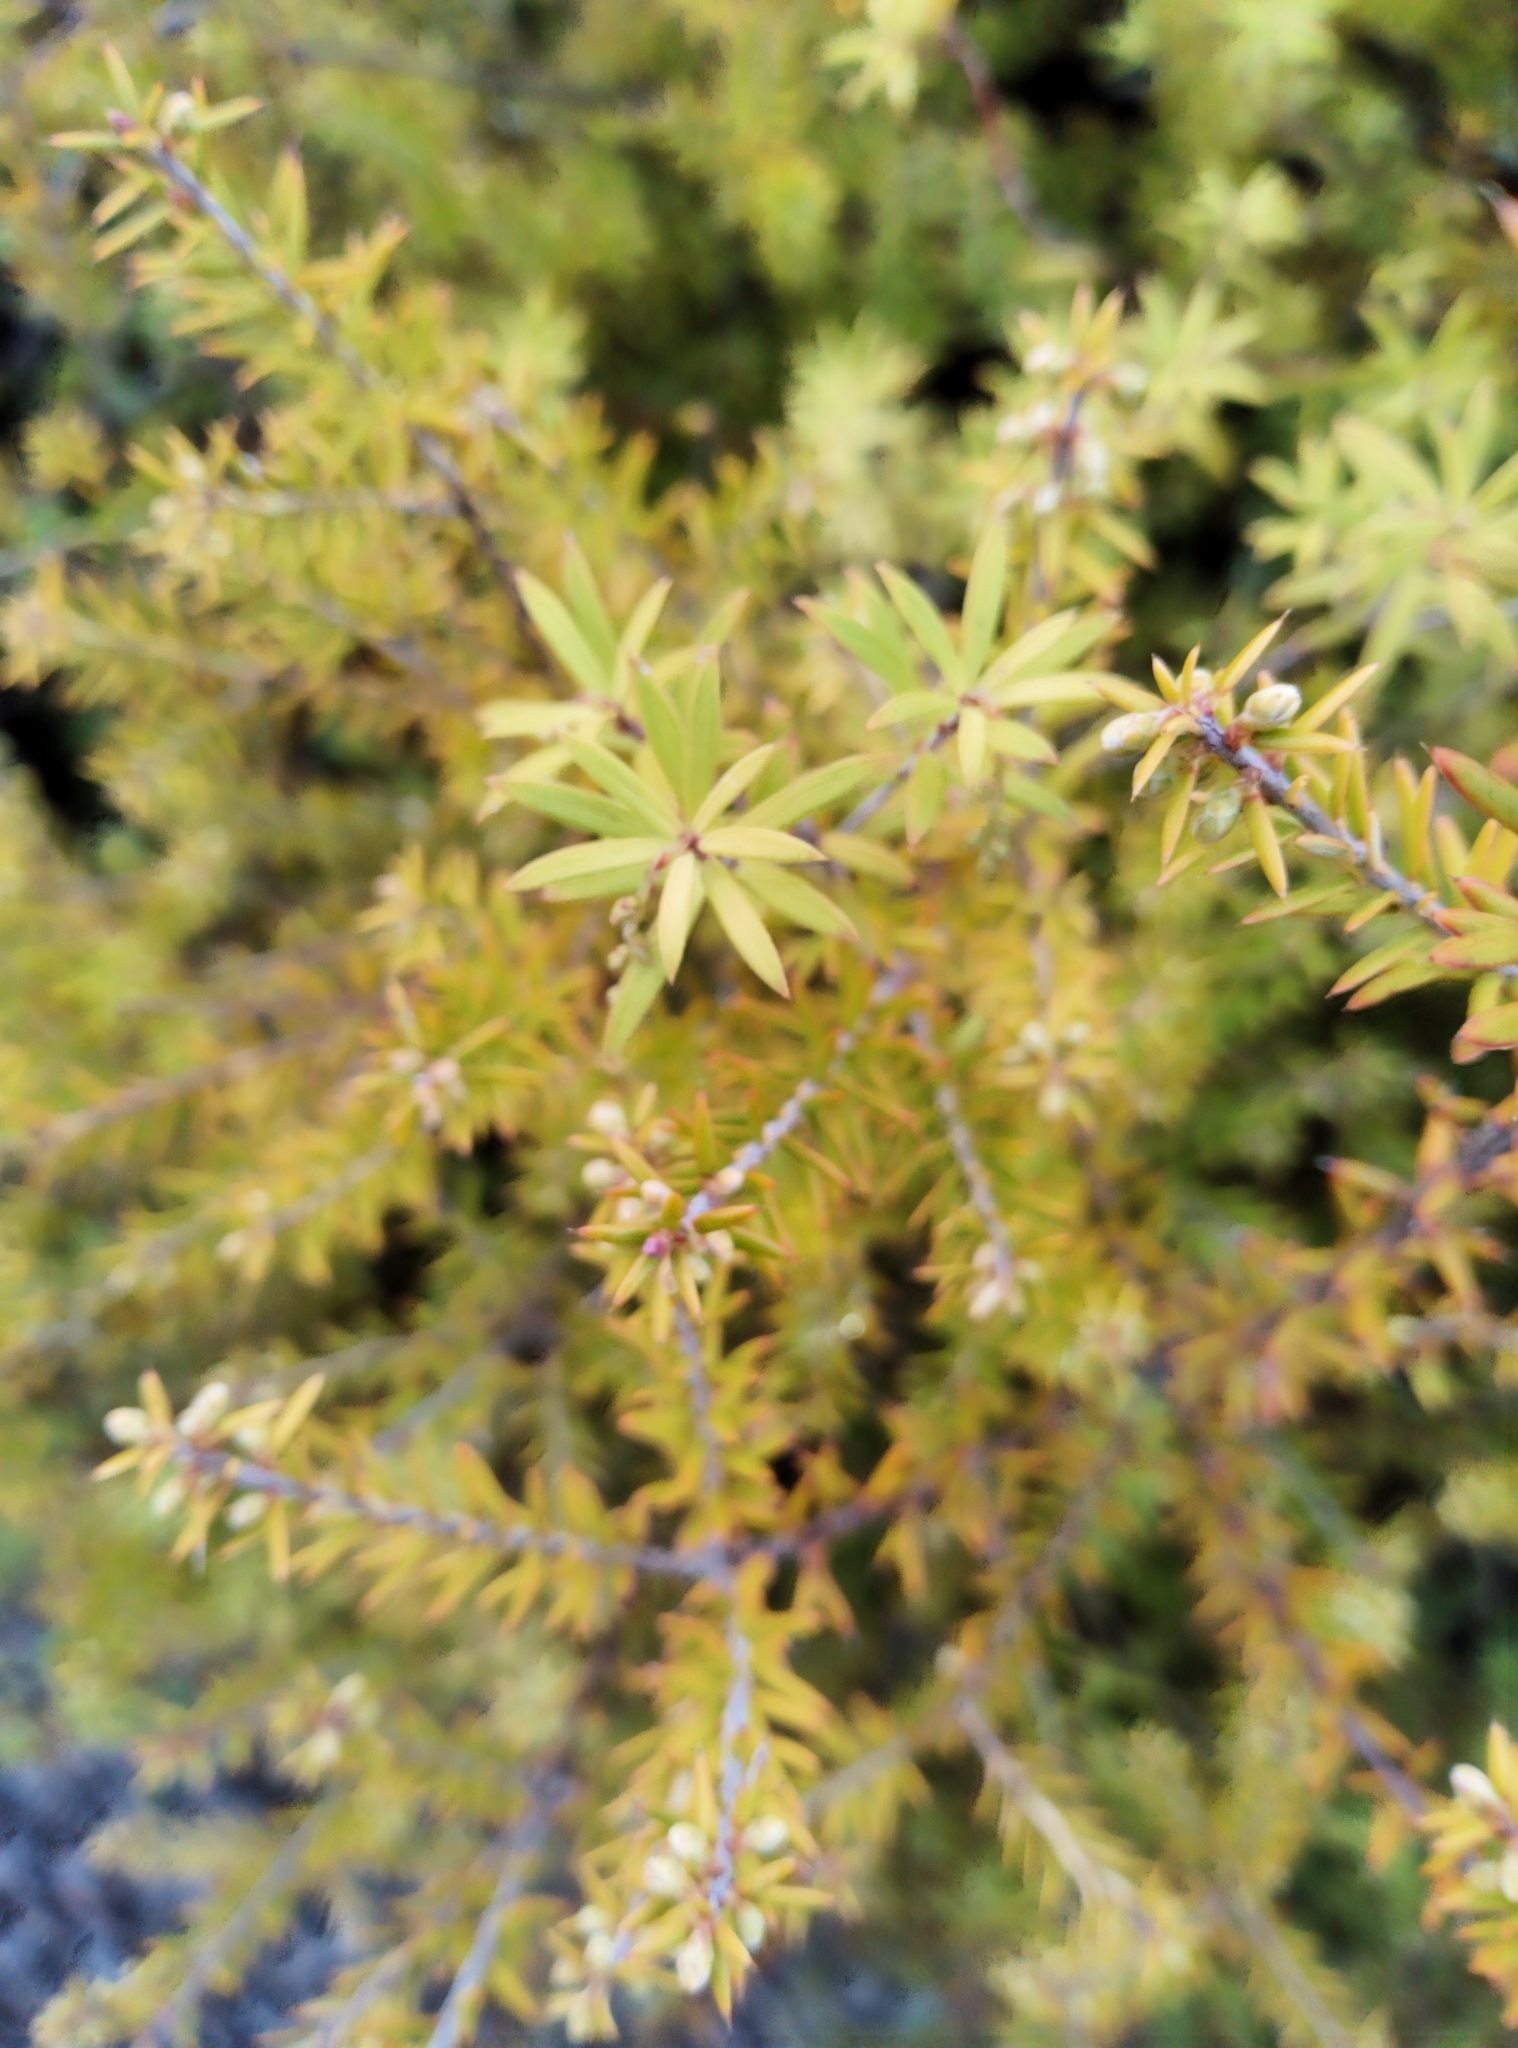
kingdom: Plantae
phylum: Tracheophyta
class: Magnoliopsida
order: Ericales
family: Ericaceae
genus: Leptecophylla
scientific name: Leptecophylla juniperina
